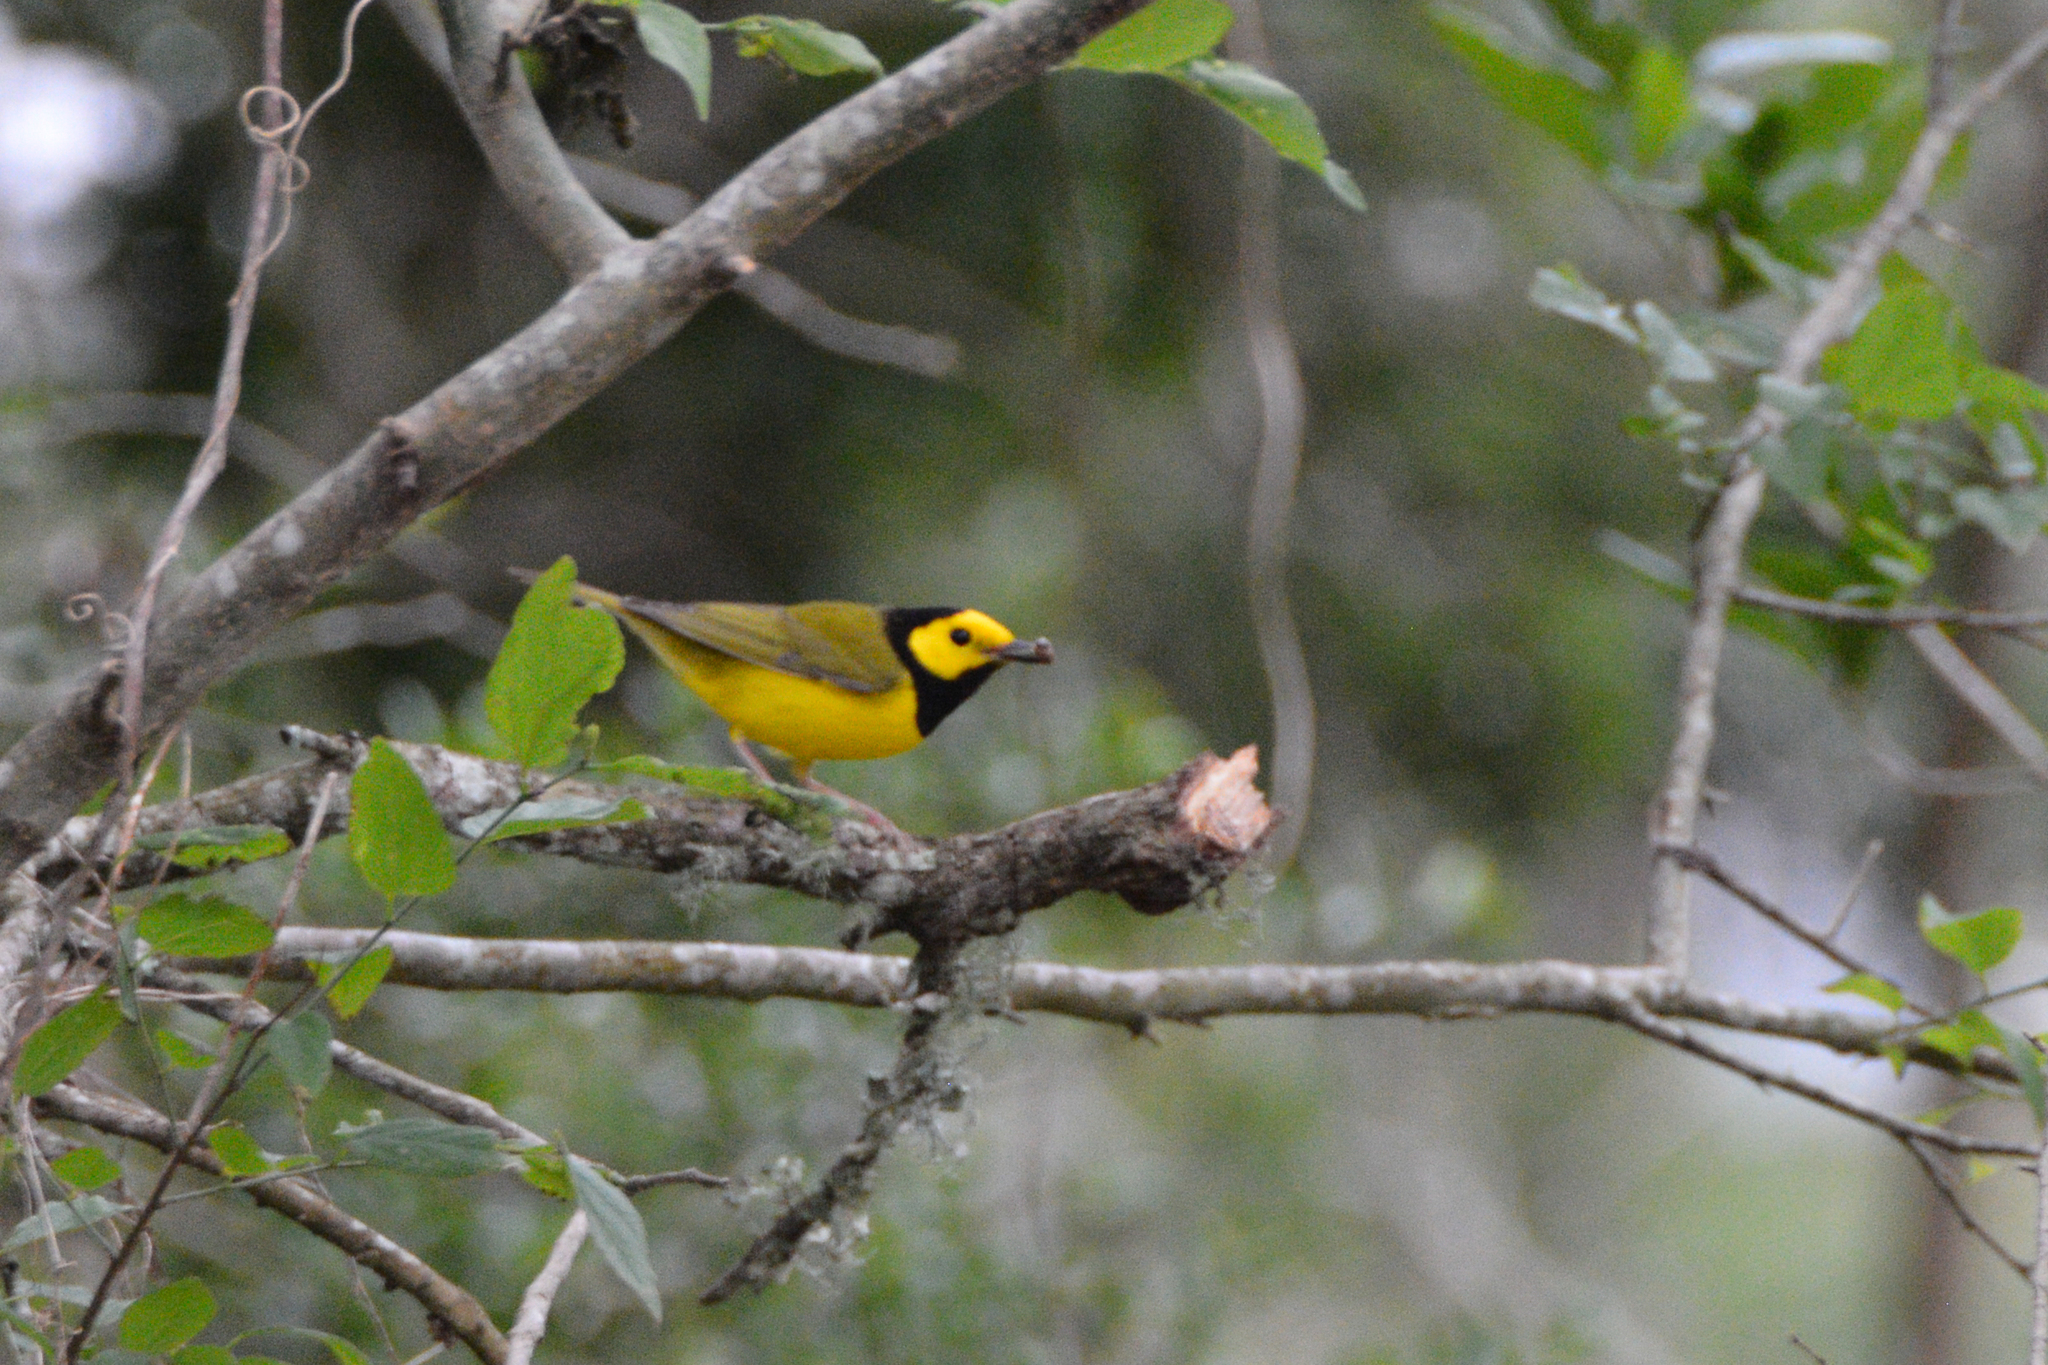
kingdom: Animalia
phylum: Chordata
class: Aves
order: Passeriformes
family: Parulidae
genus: Setophaga
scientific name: Setophaga citrina
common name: Hooded warbler
